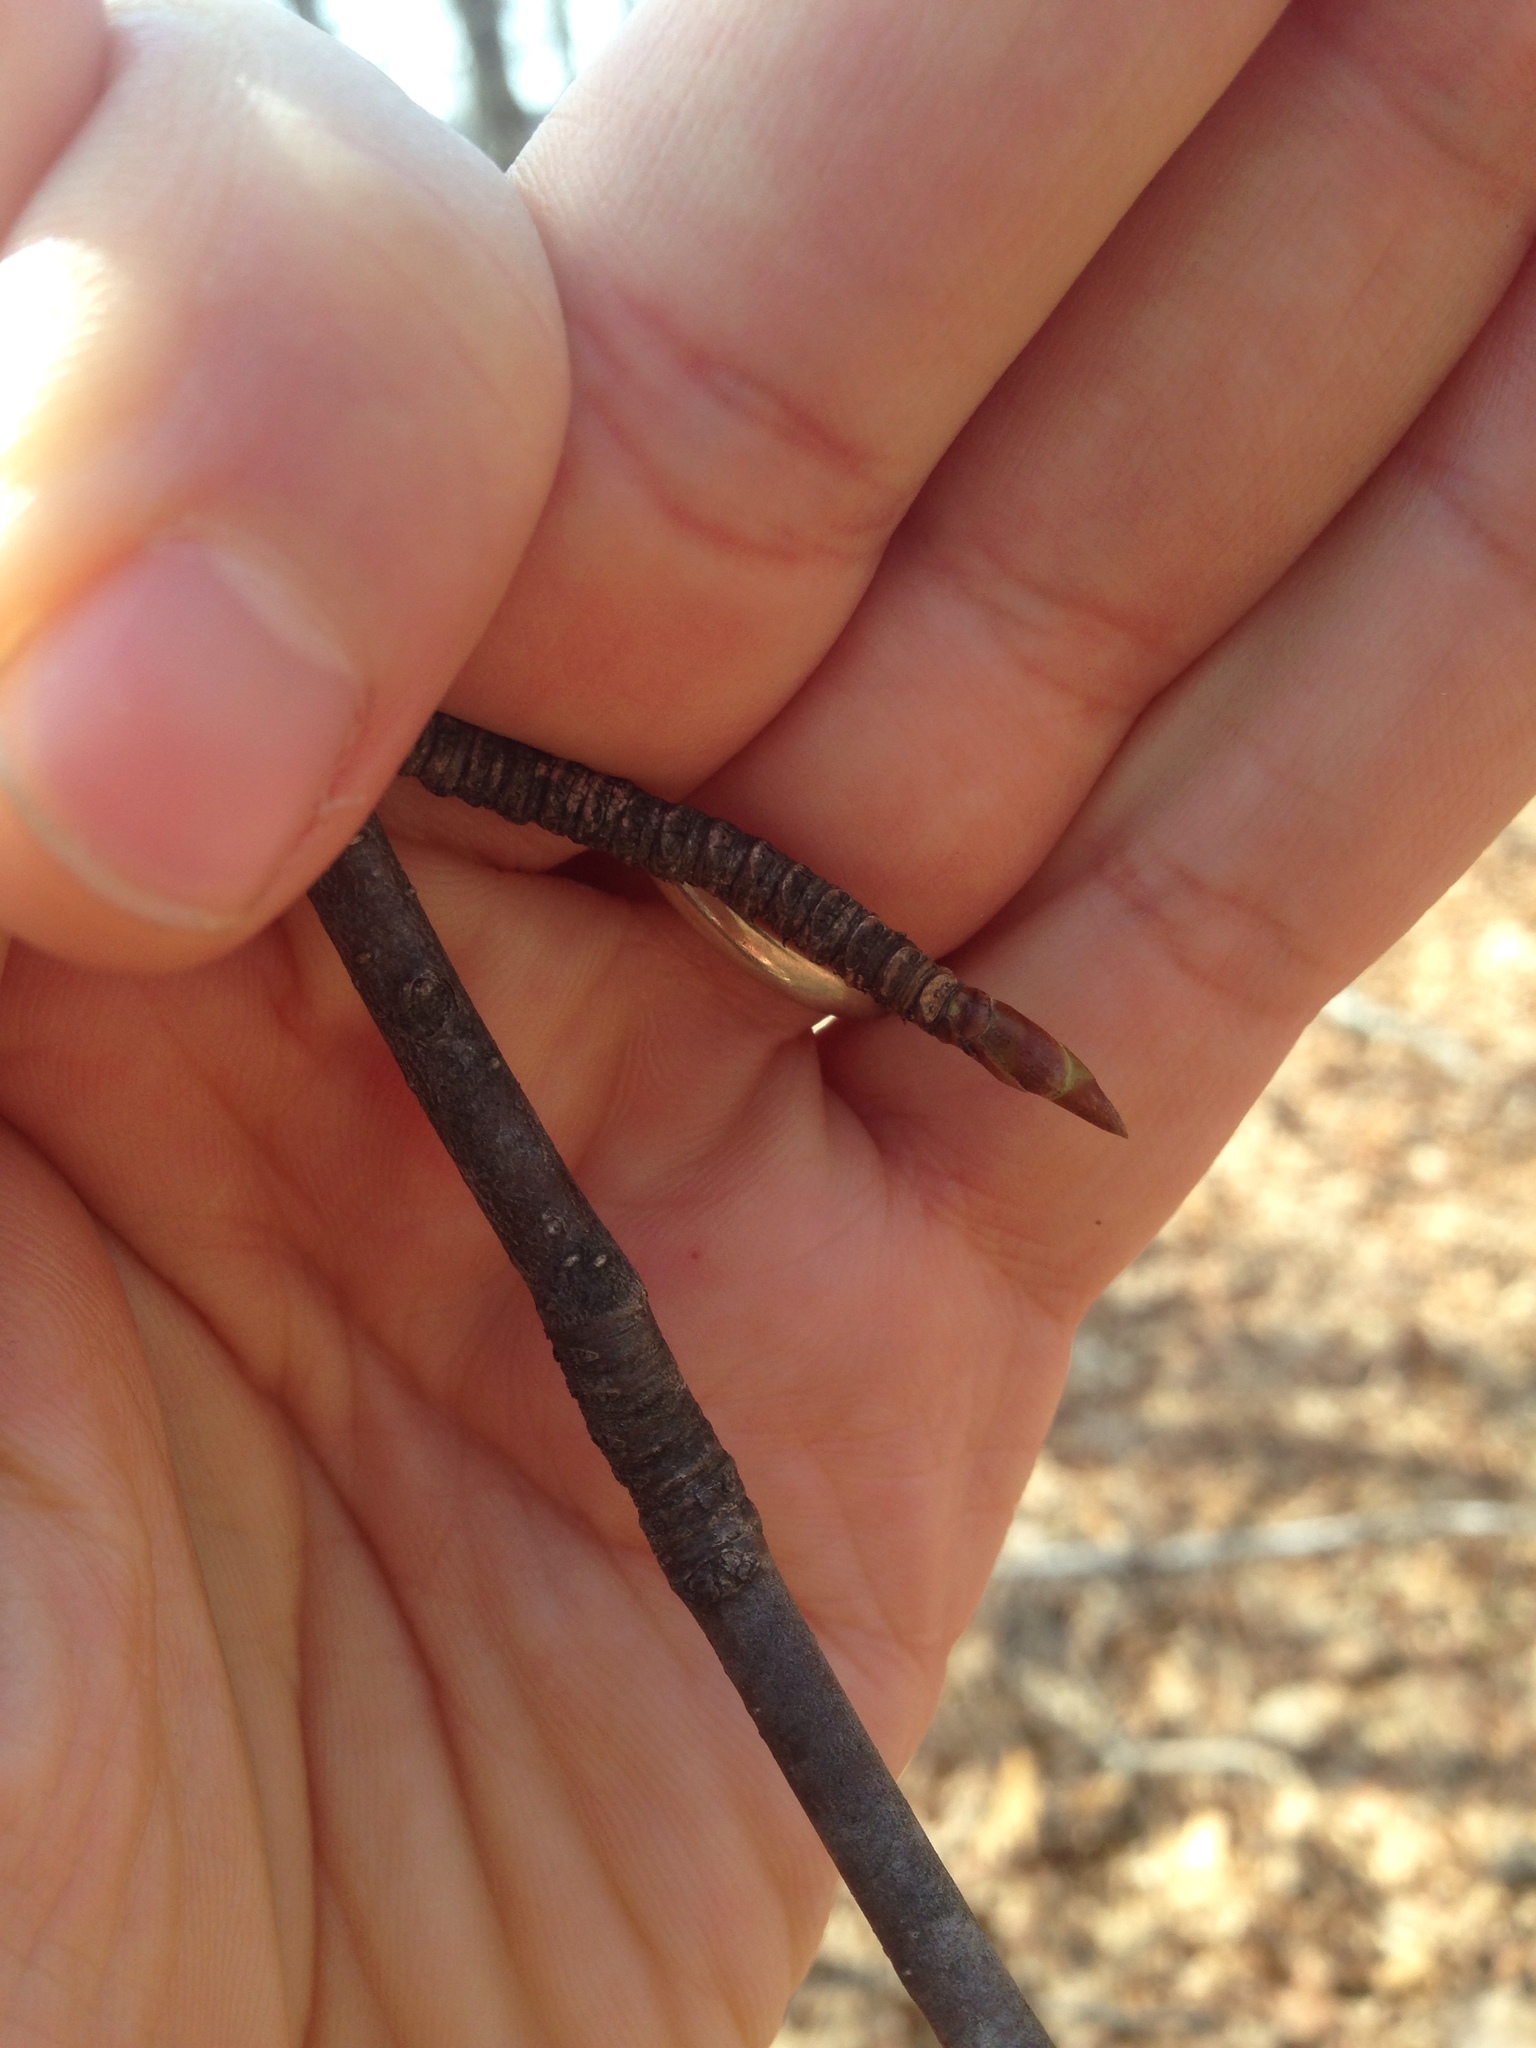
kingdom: Plantae
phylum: Tracheophyta
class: Magnoliopsida
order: Fagales
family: Betulaceae
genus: Betula
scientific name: Betula lenta
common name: Black birch
